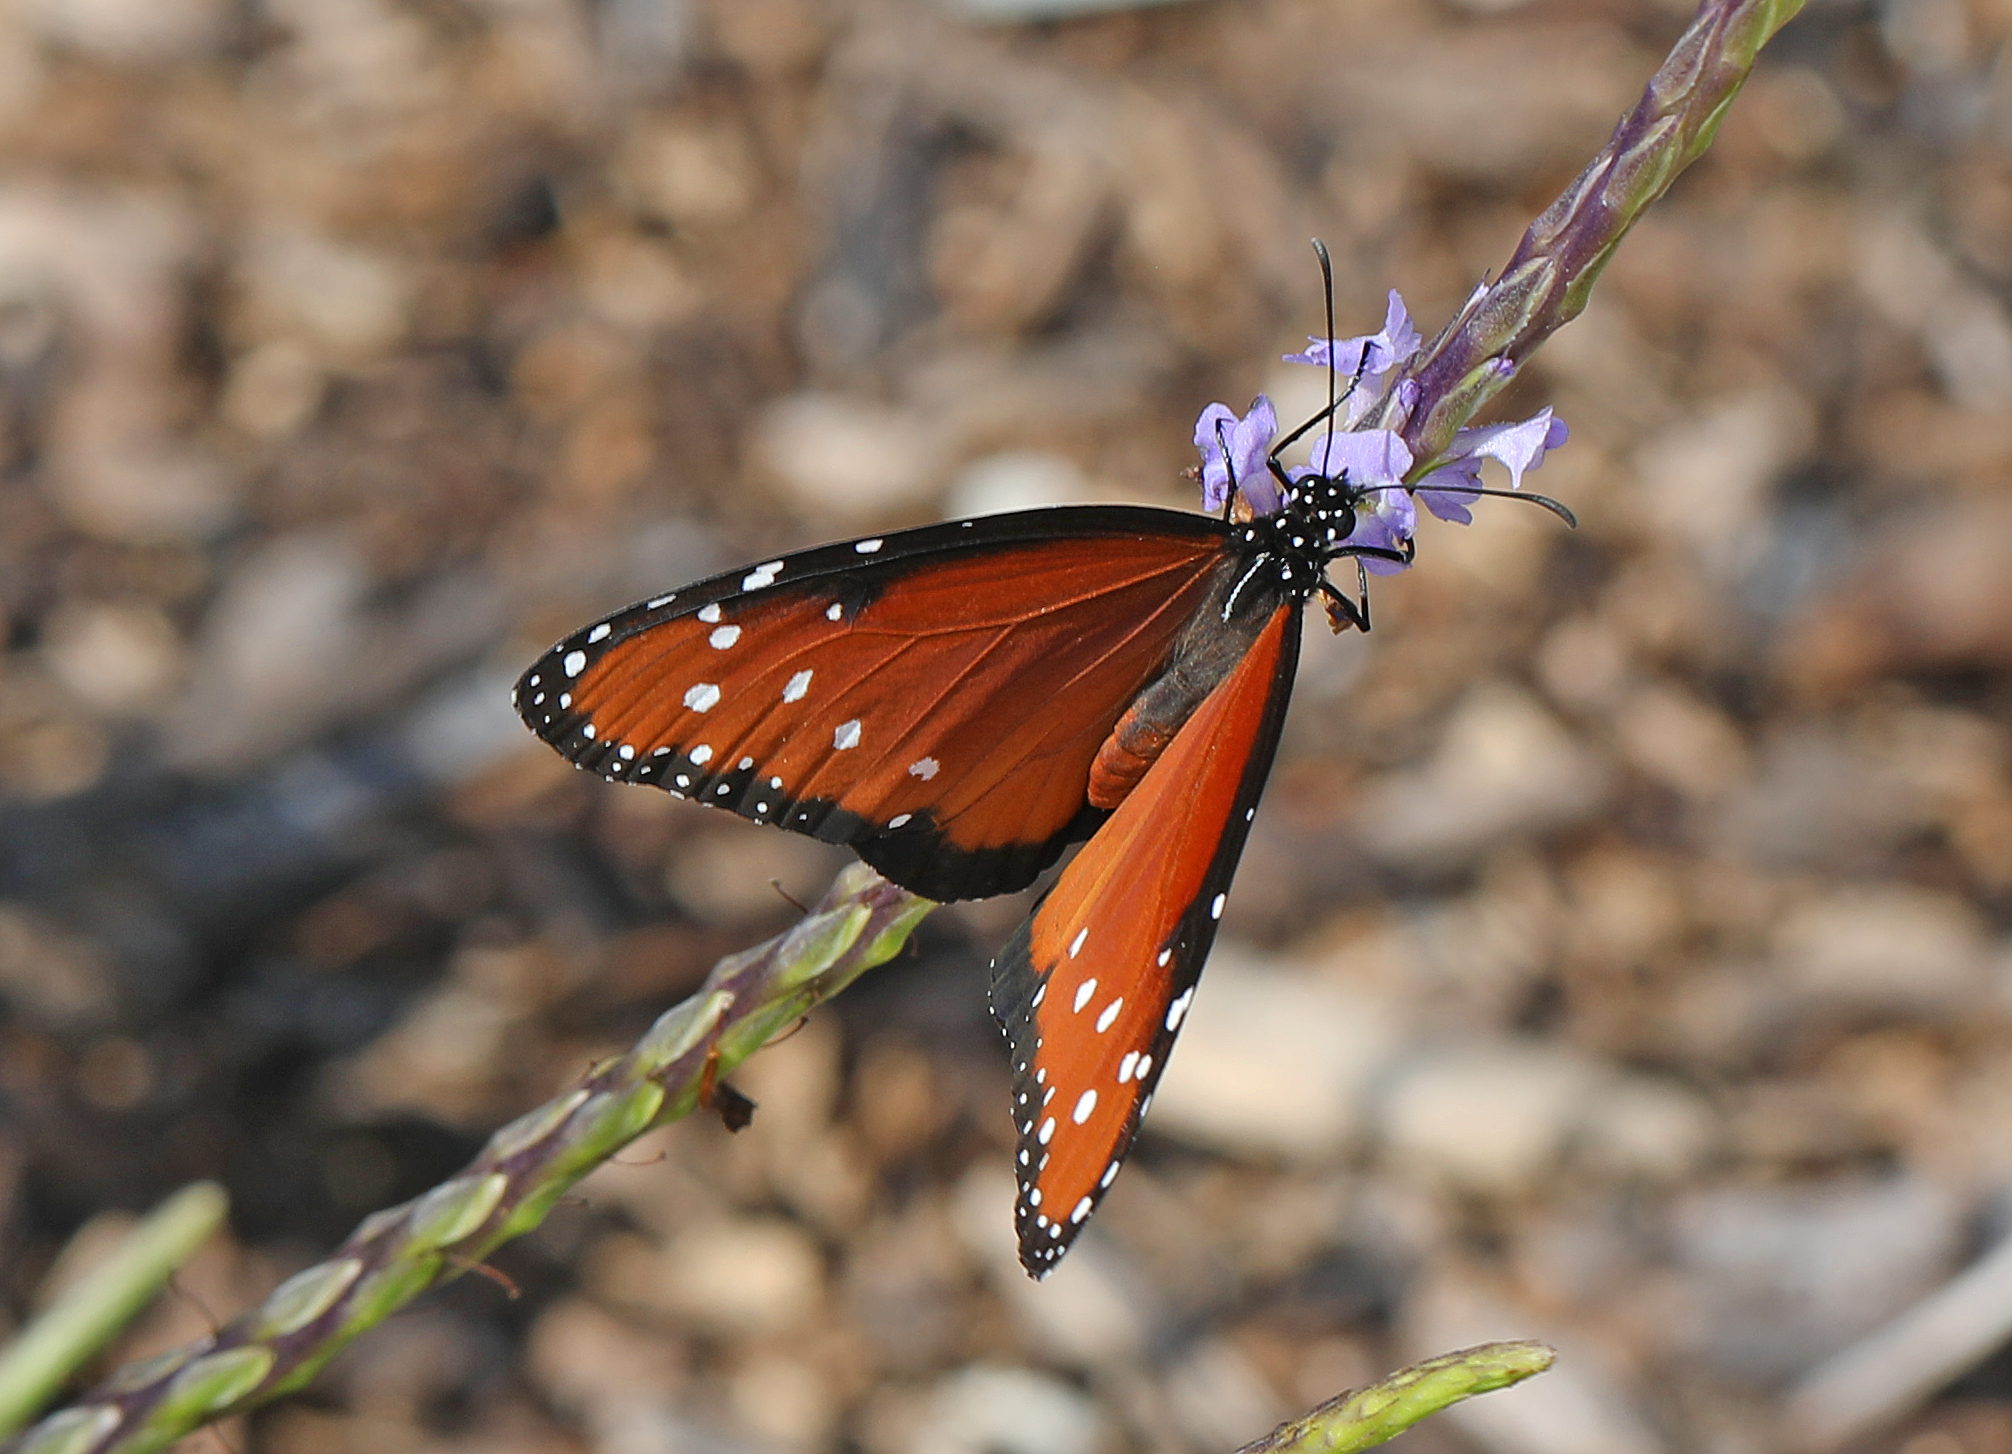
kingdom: Animalia
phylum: Arthropoda
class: Insecta
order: Lepidoptera
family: Nymphalidae
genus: Danaus
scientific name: Danaus gilippus
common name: Queen
